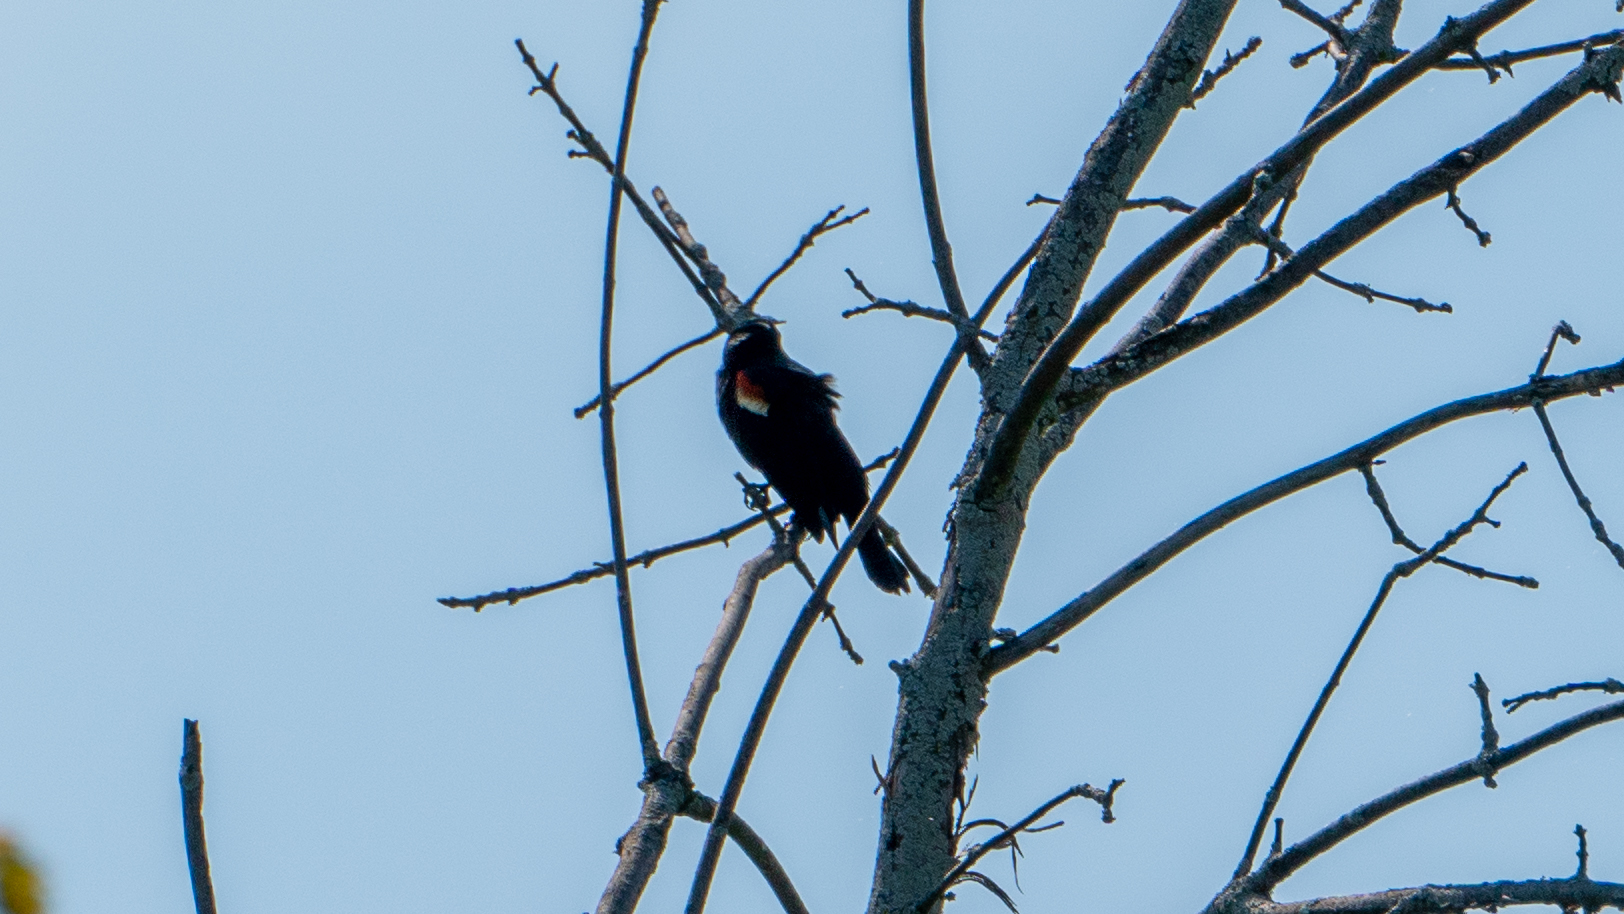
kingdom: Animalia
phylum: Chordata
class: Aves
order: Passeriformes
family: Icteridae
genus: Agelaius
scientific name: Agelaius phoeniceus
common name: Red-winged blackbird
